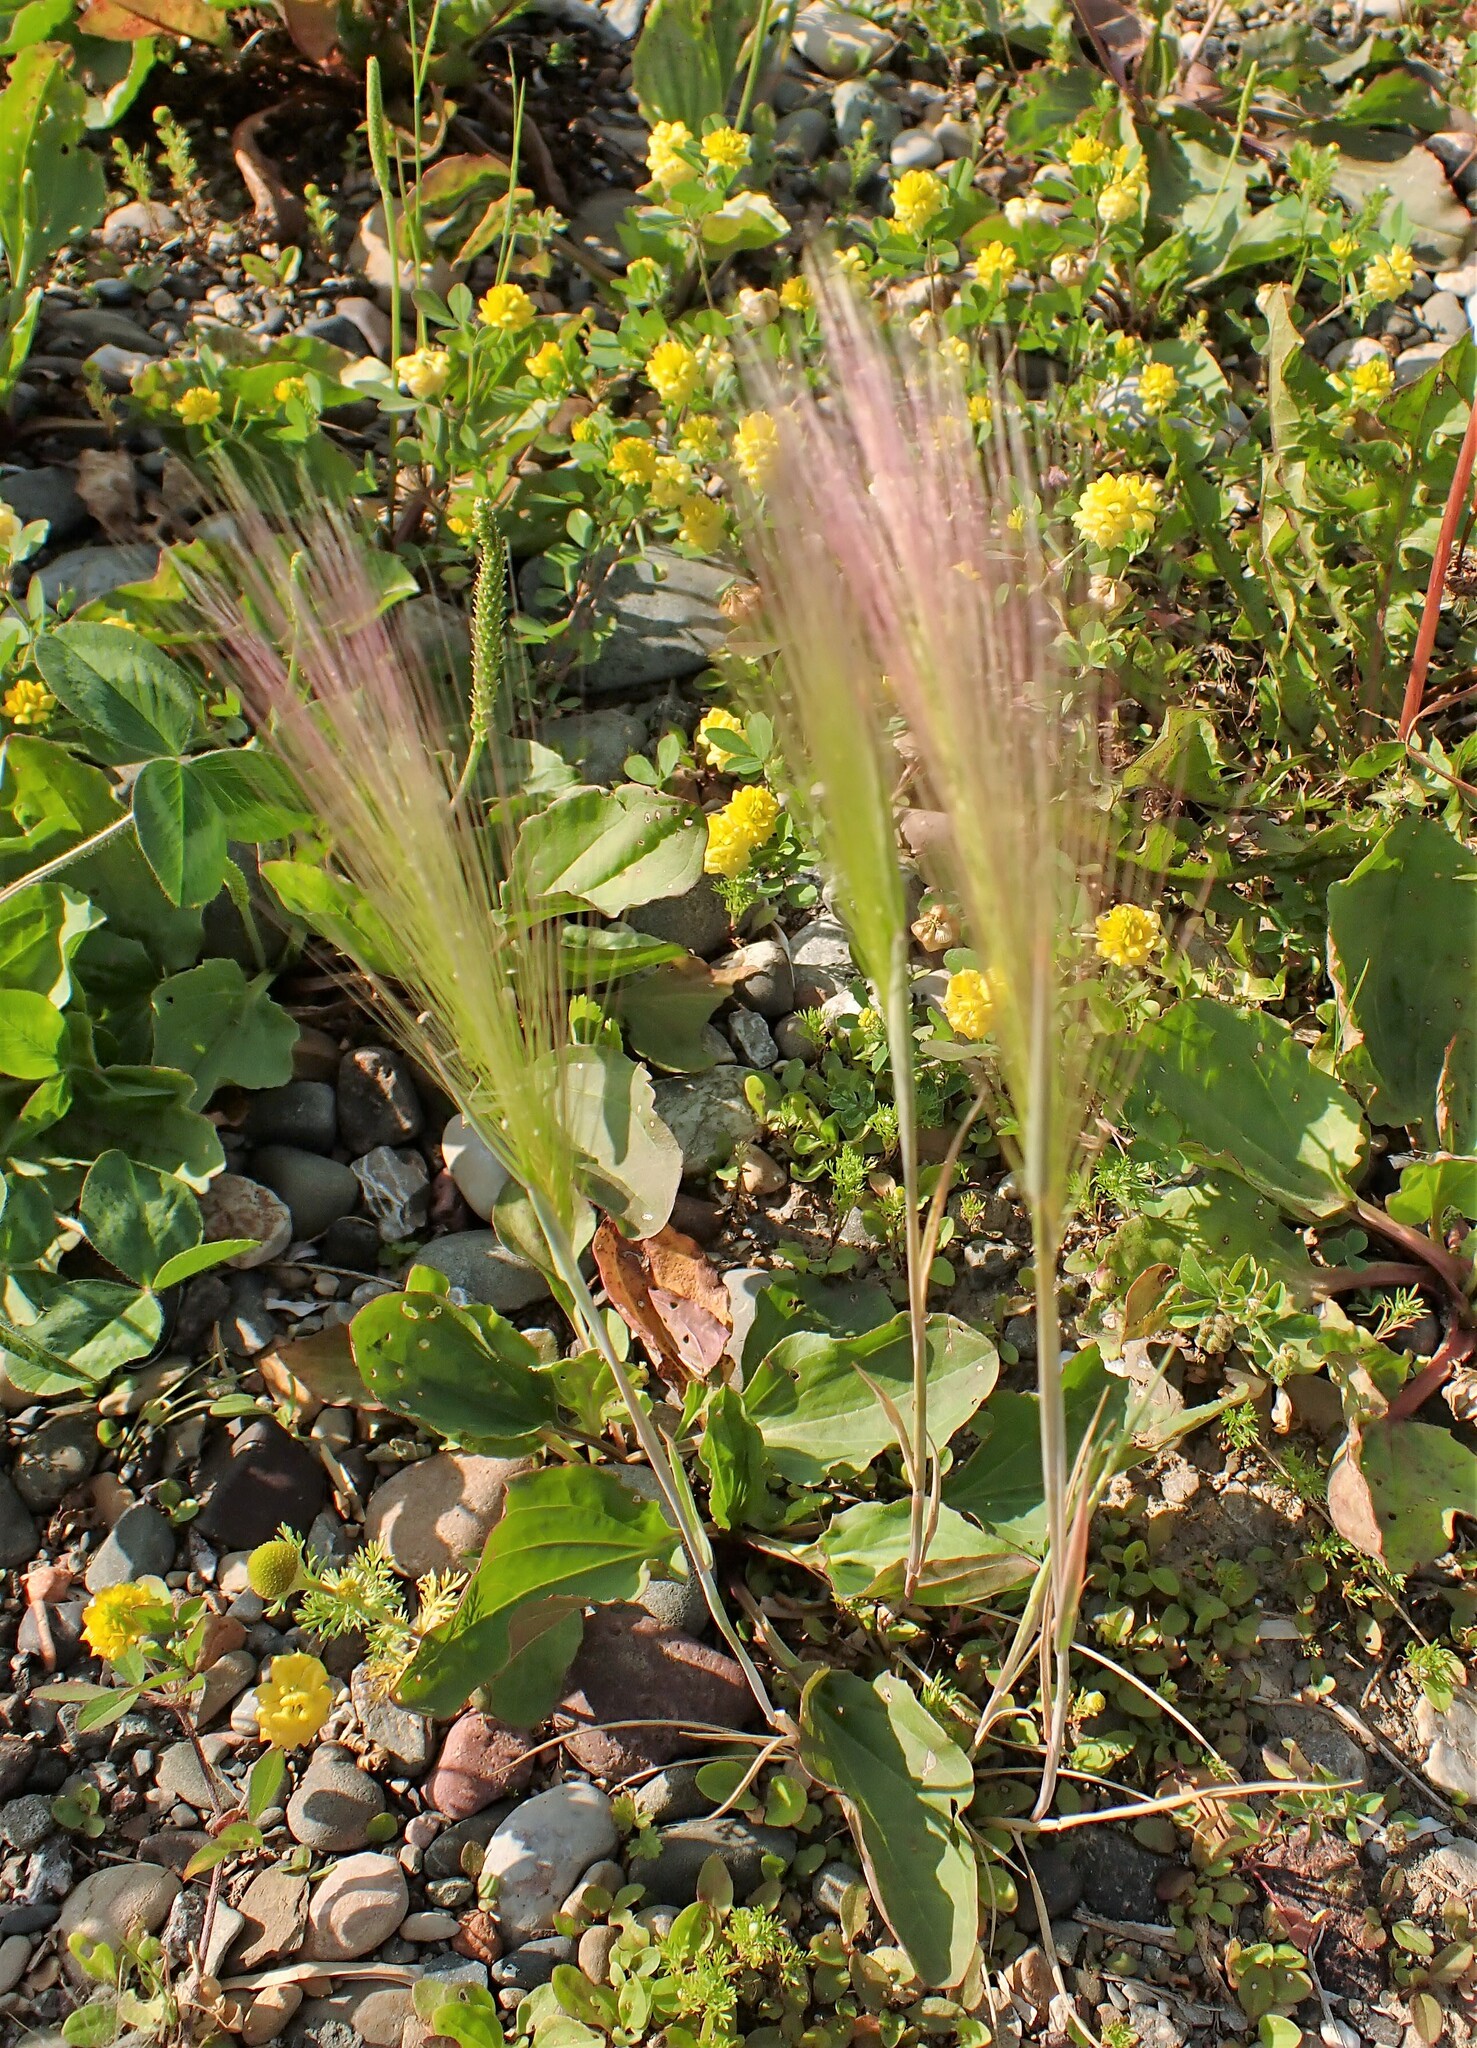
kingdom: Plantae
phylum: Tracheophyta
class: Liliopsida
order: Poales
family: Poaceae
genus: Hordeum
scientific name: Hordeum jubatum
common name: Foxtail barley
